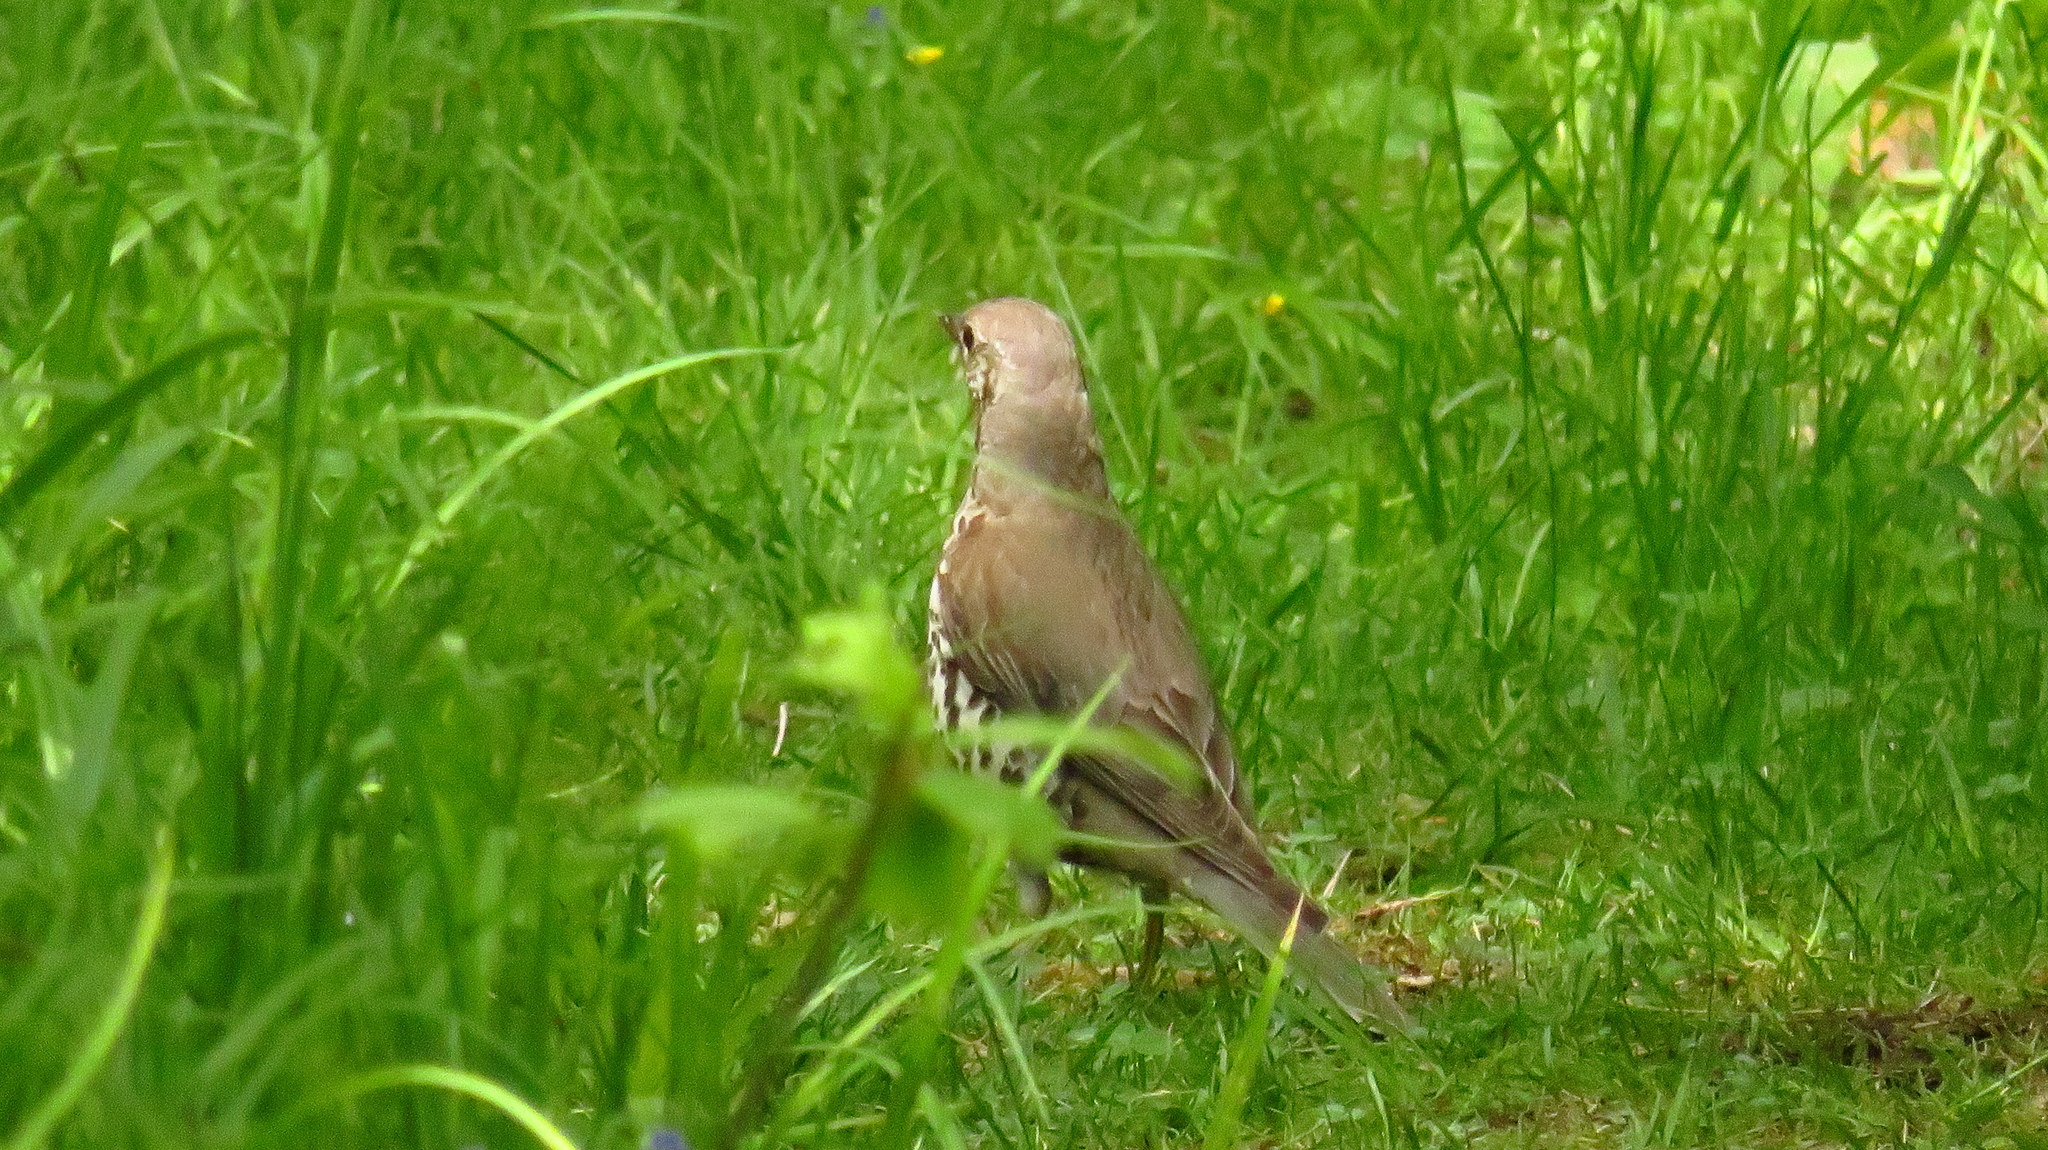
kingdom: Animalia
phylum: Chordata
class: Aves
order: Passeriformes
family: Turdidae
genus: Turdus
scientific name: Turdus viscivorus
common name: Mistle thrush
